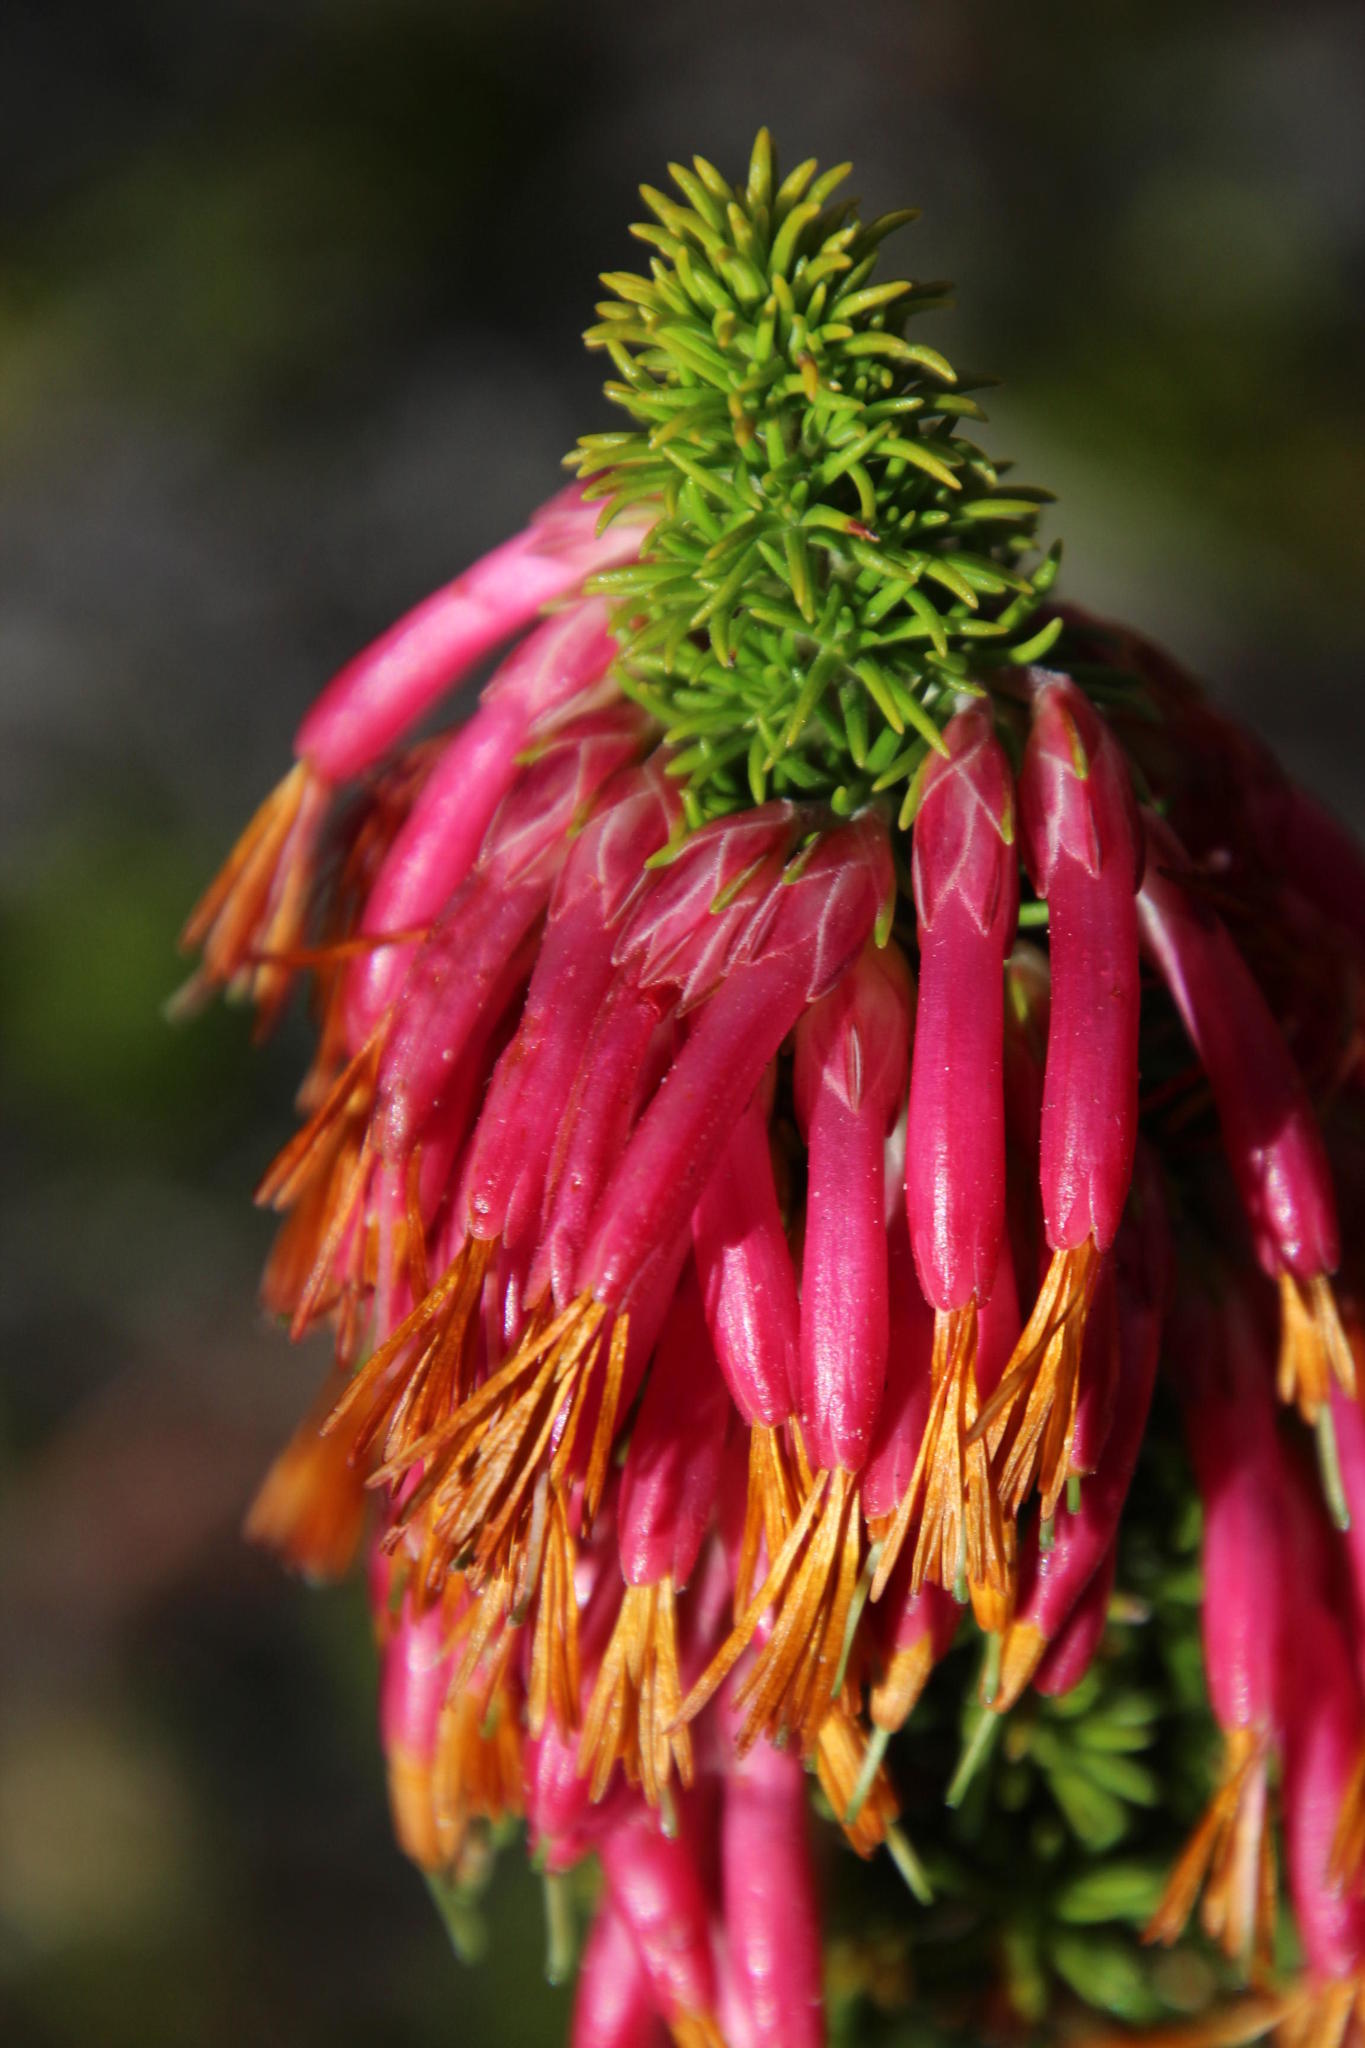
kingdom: Plantae
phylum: Tracheophyta
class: Magnoliopsida
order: Ericales
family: Ericaceae
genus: Erica
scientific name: Erica coccinea
